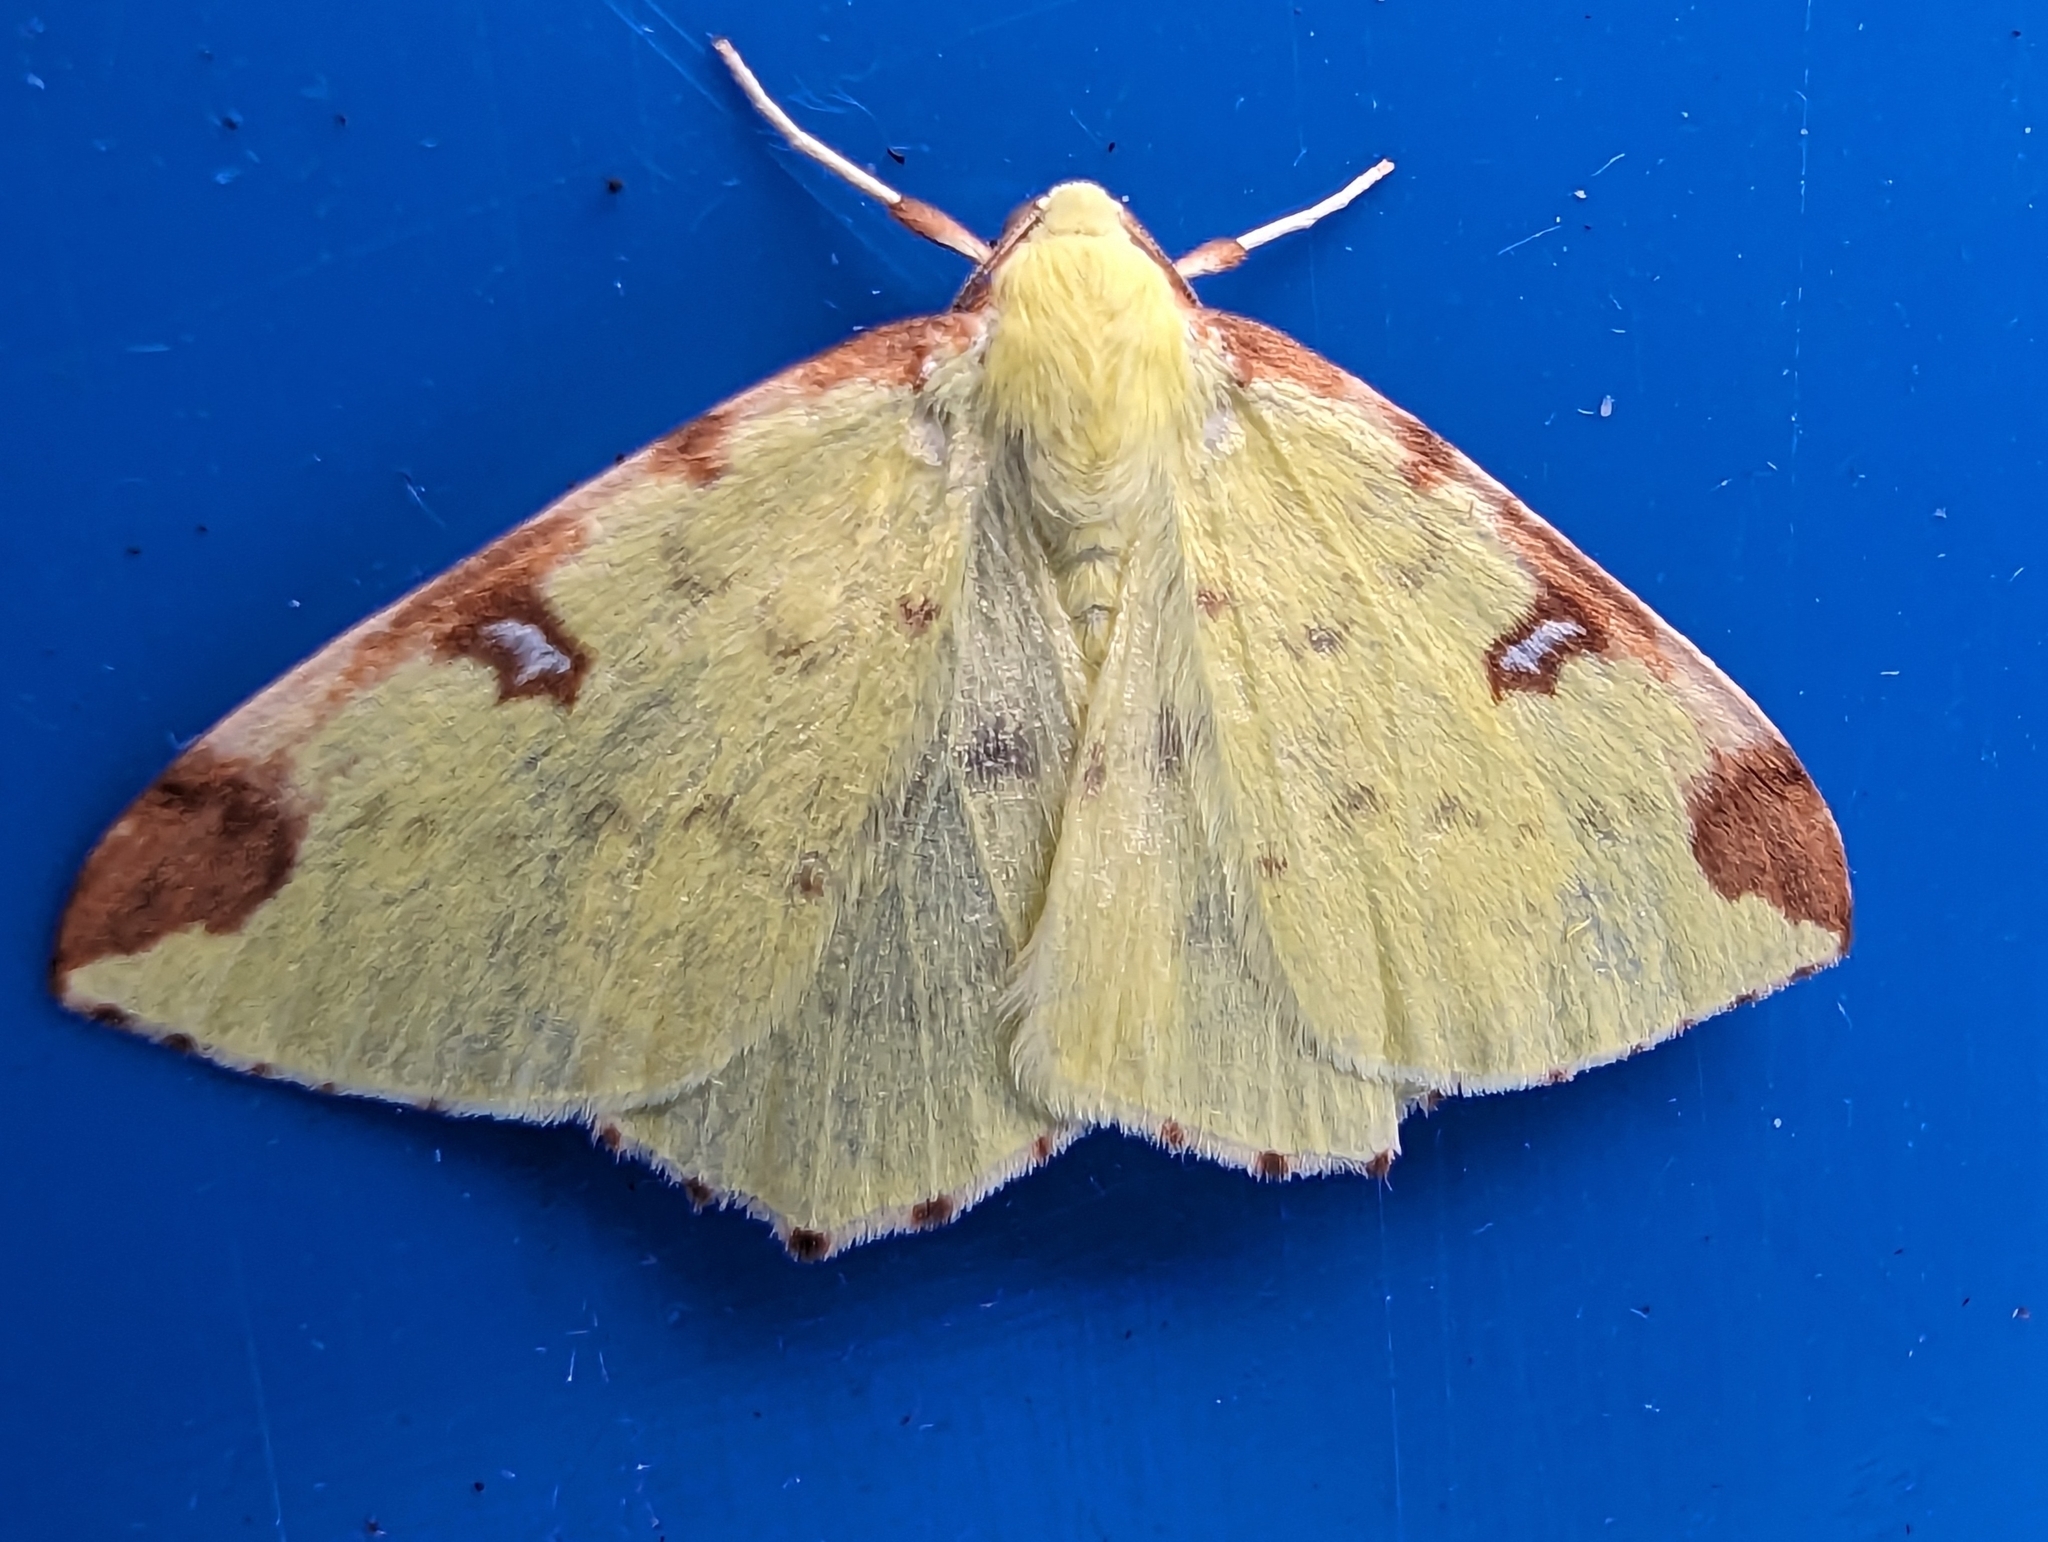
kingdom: Animalia
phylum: Arthropoda
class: Insecta
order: Lepidoptera
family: Geometridae
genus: Opisthograptis
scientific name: Opisthograptis luteolata
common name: Brimstone moth
